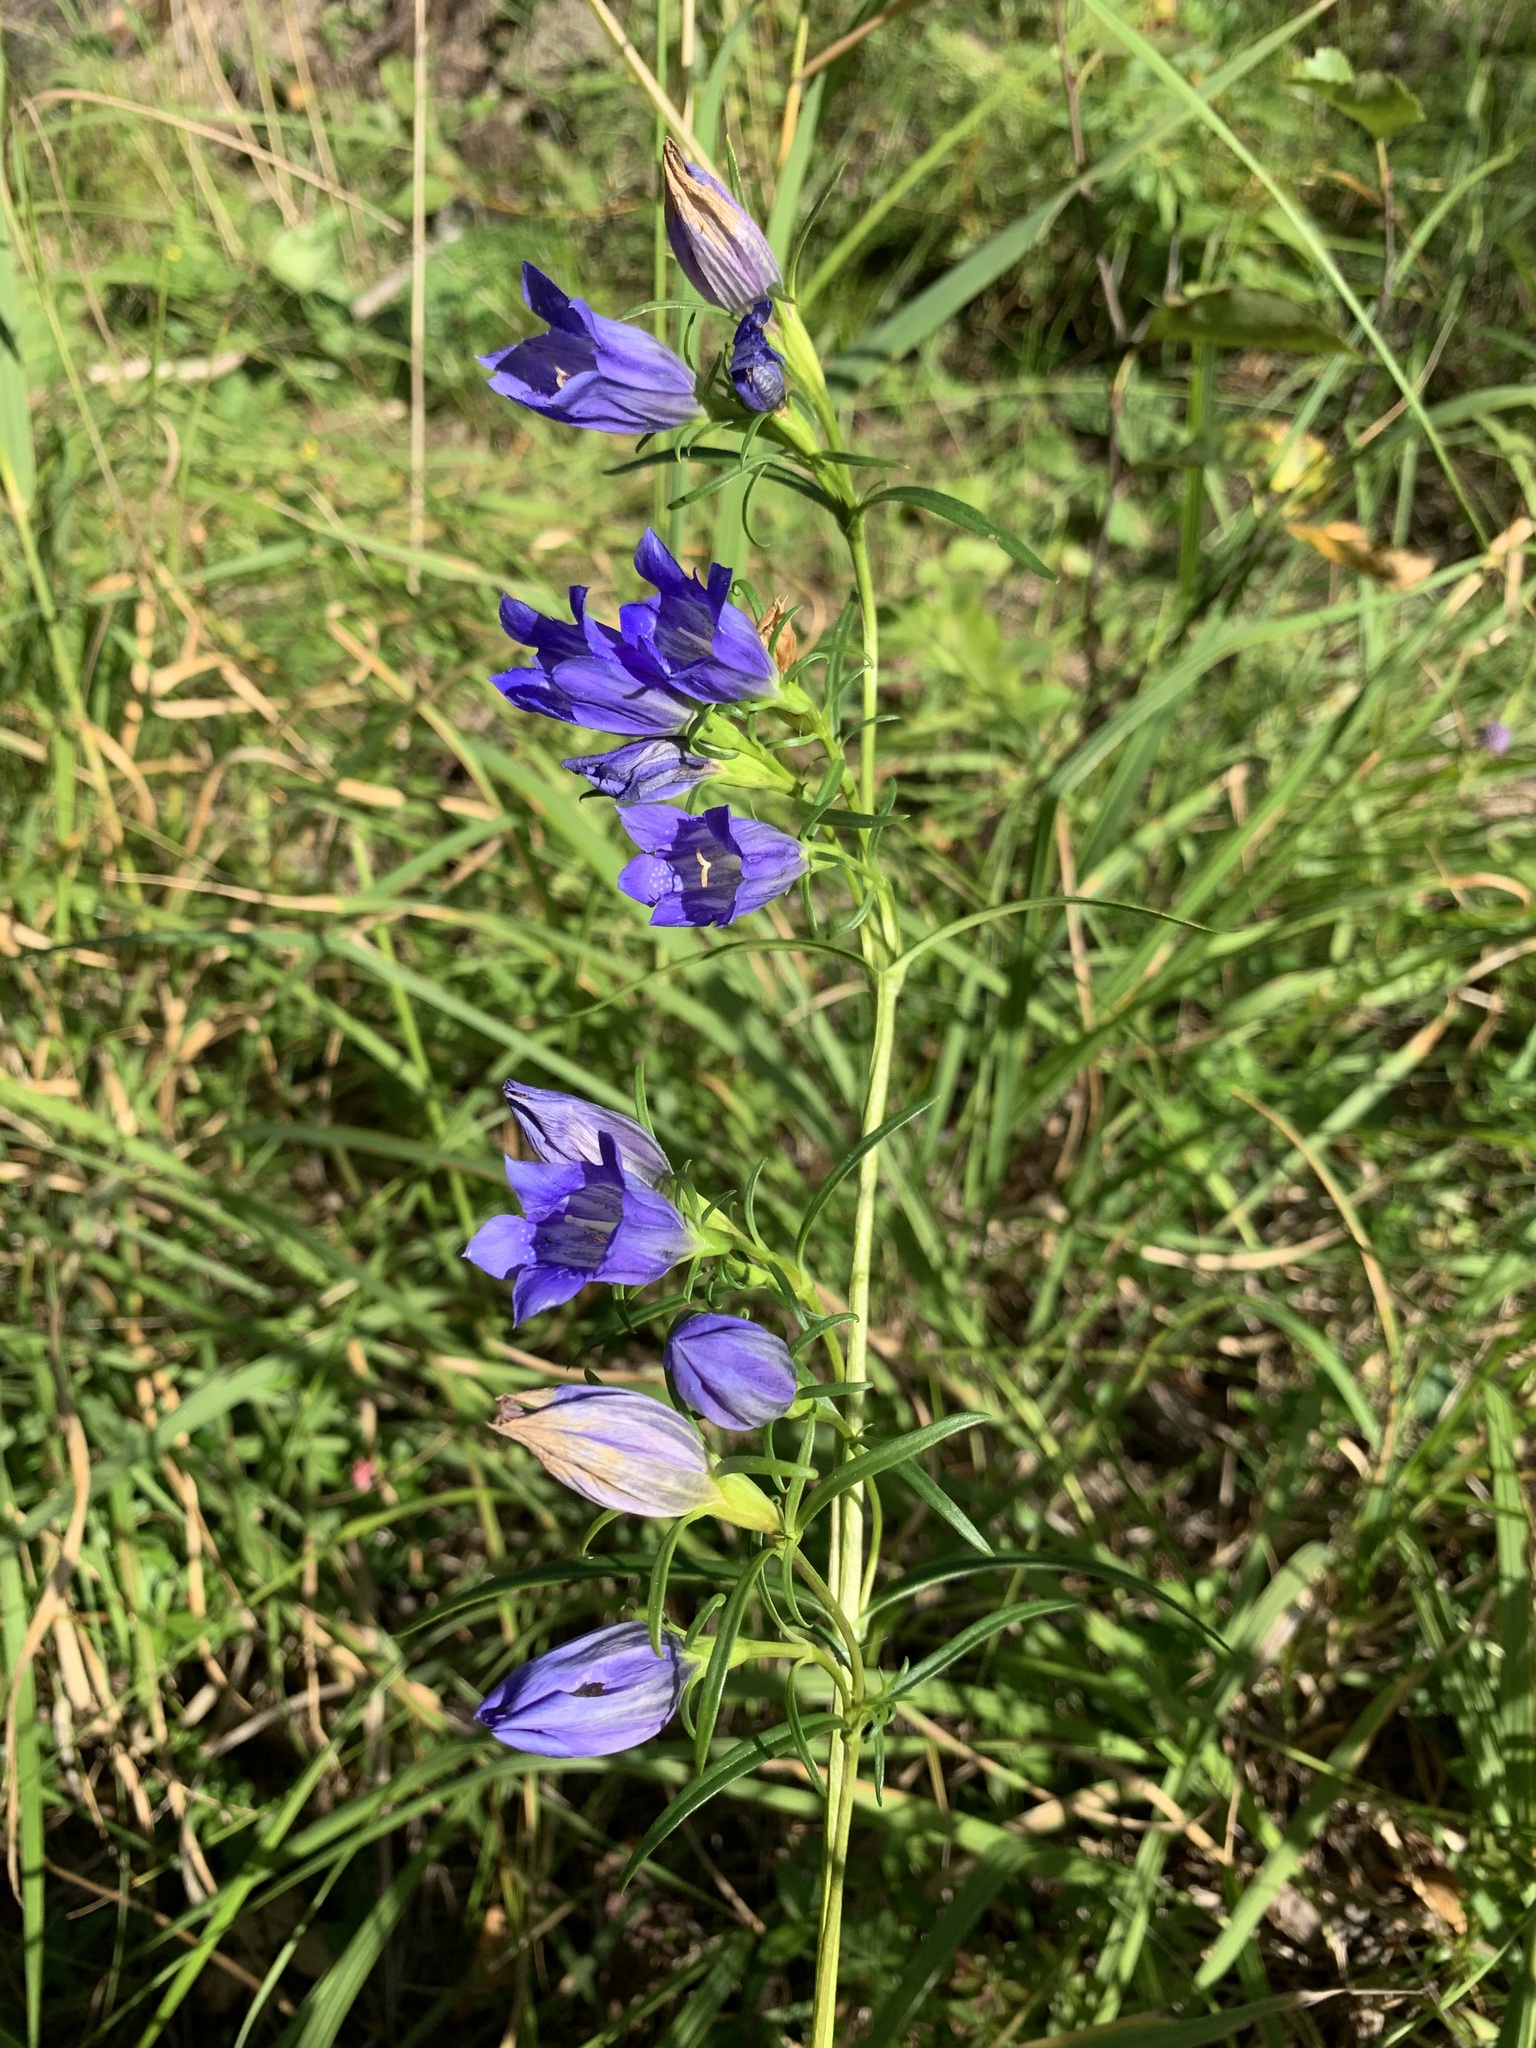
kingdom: Plantae
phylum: Tracheophyta
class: Magnoliopsida
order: Gentianales
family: Gentianaceae
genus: Gentiana
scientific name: Gentiana pneumonanthe
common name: Marsh gentian
